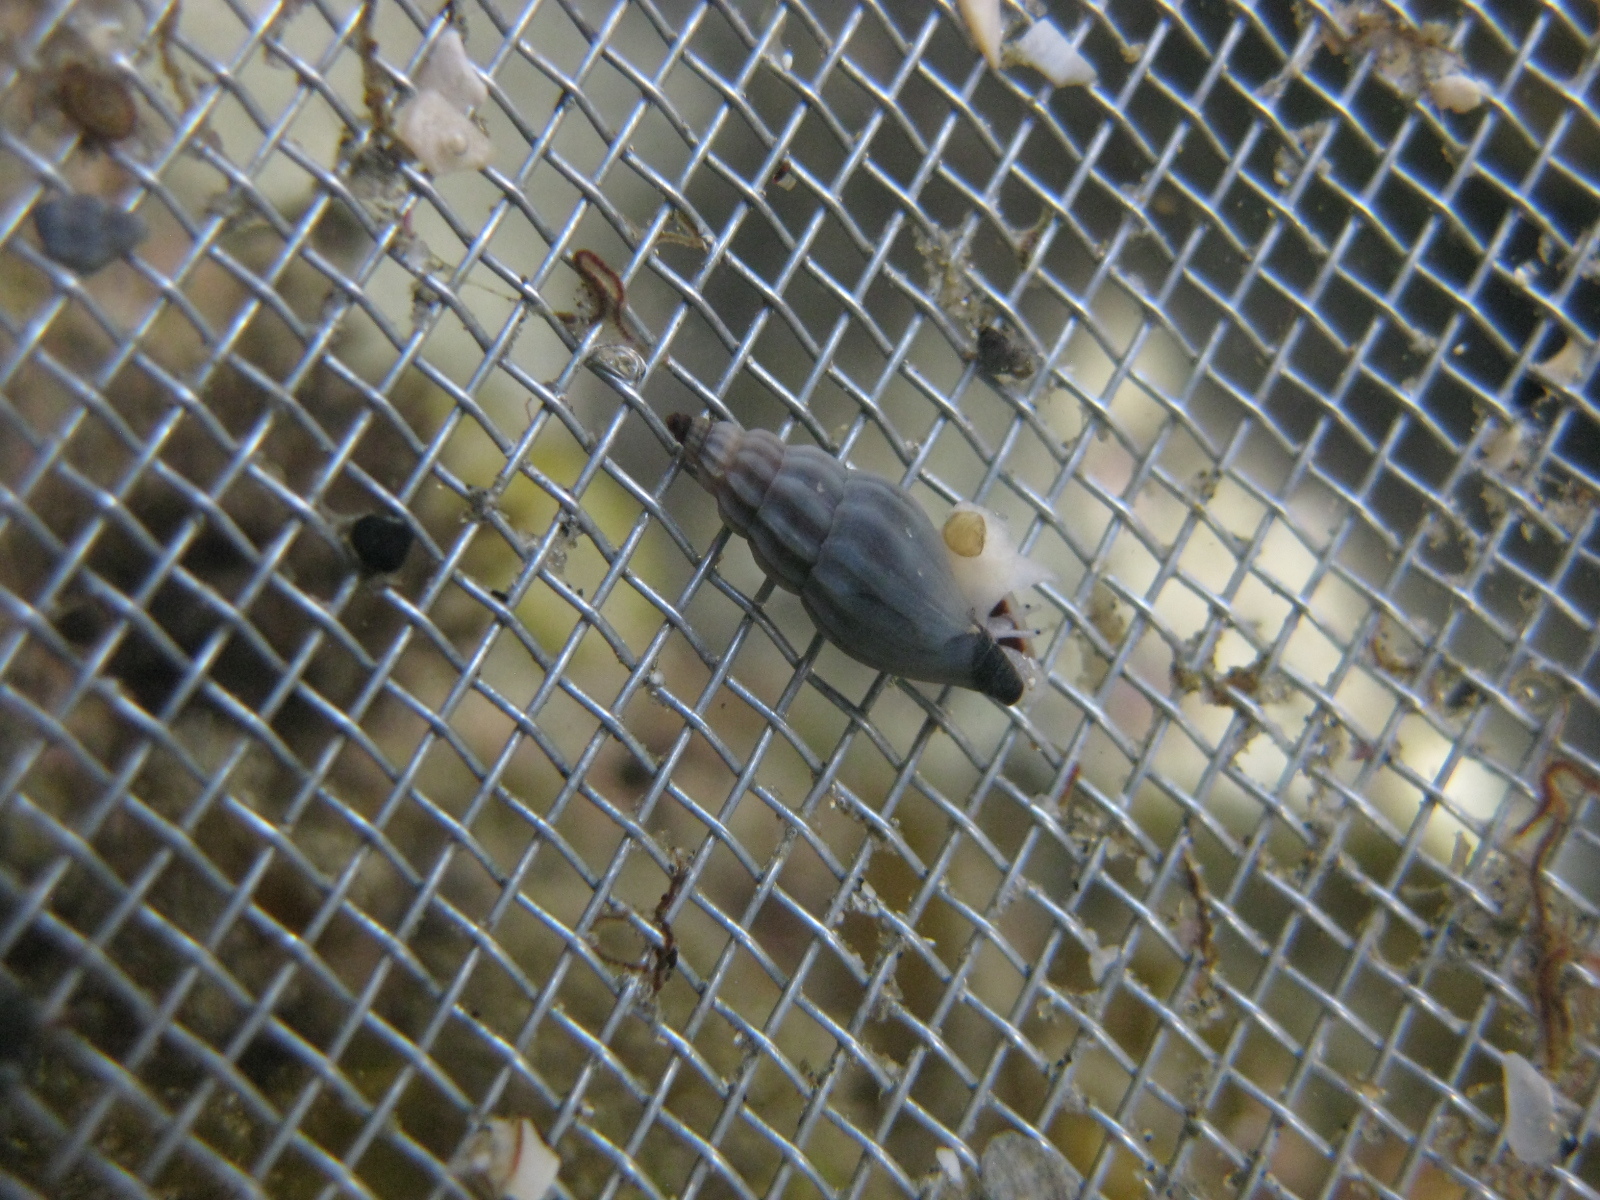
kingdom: Animalia
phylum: Mollusca
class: Gastropoda
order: Neogastropoda
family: Mangeliidae
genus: Neoguraleus
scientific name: Neoguraleus lyallensis
